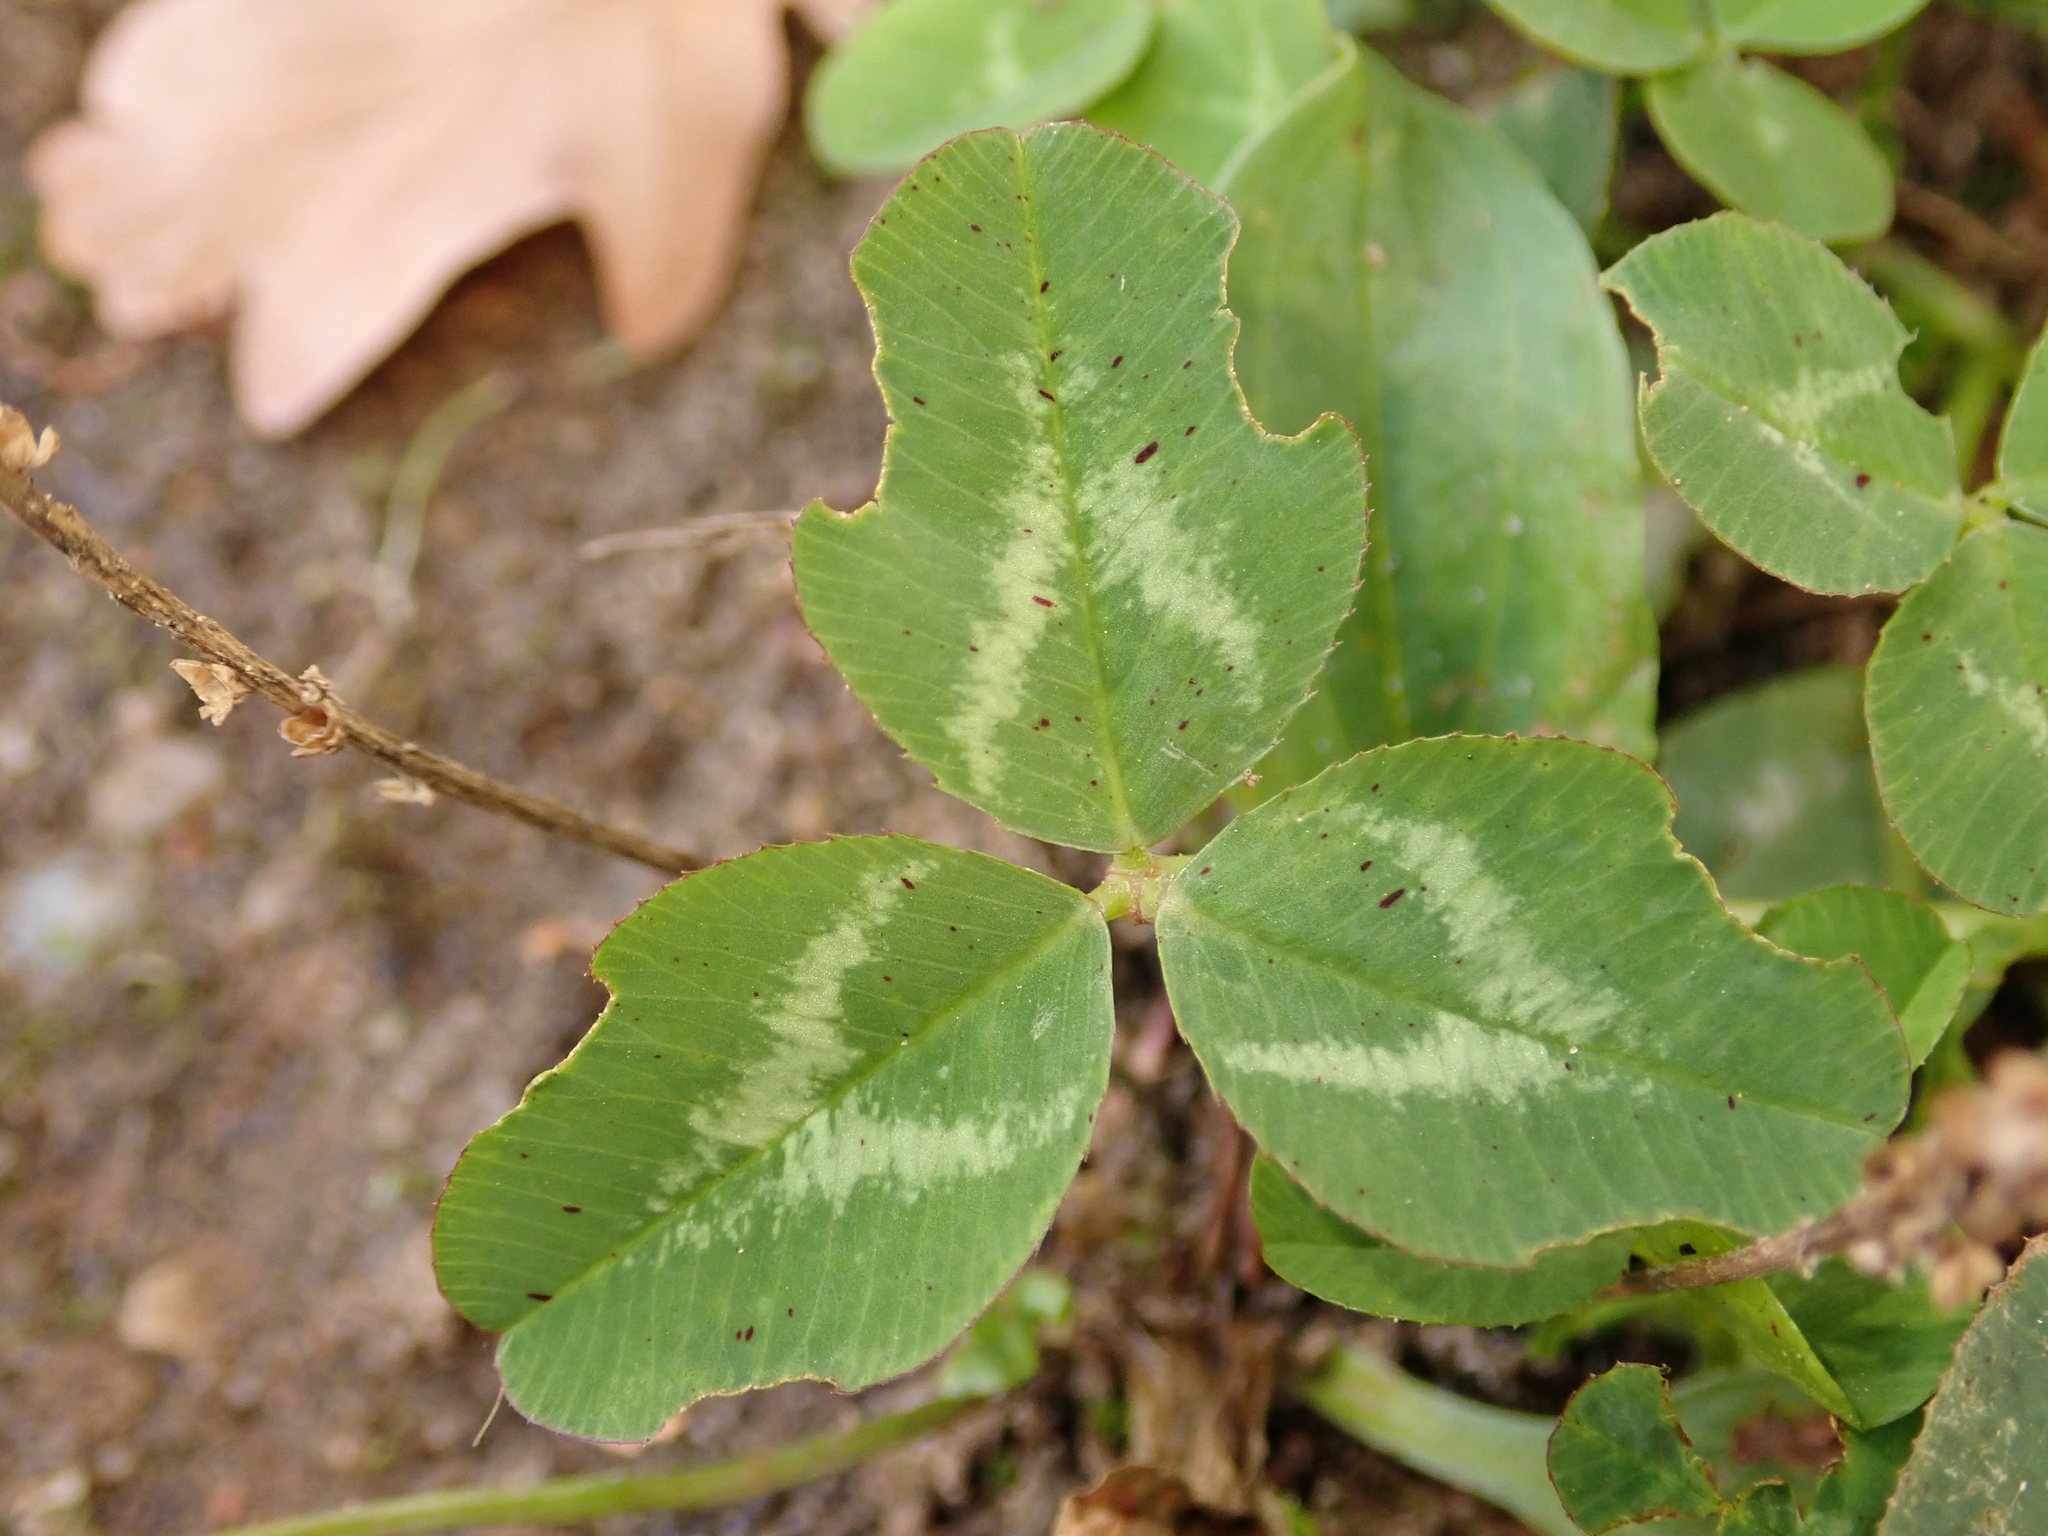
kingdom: Plantae
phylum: Tracheophyta
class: Magnoliopsida
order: Fabales
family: Fabaceae
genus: Trifolium
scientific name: Trifolium repens
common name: White clover
